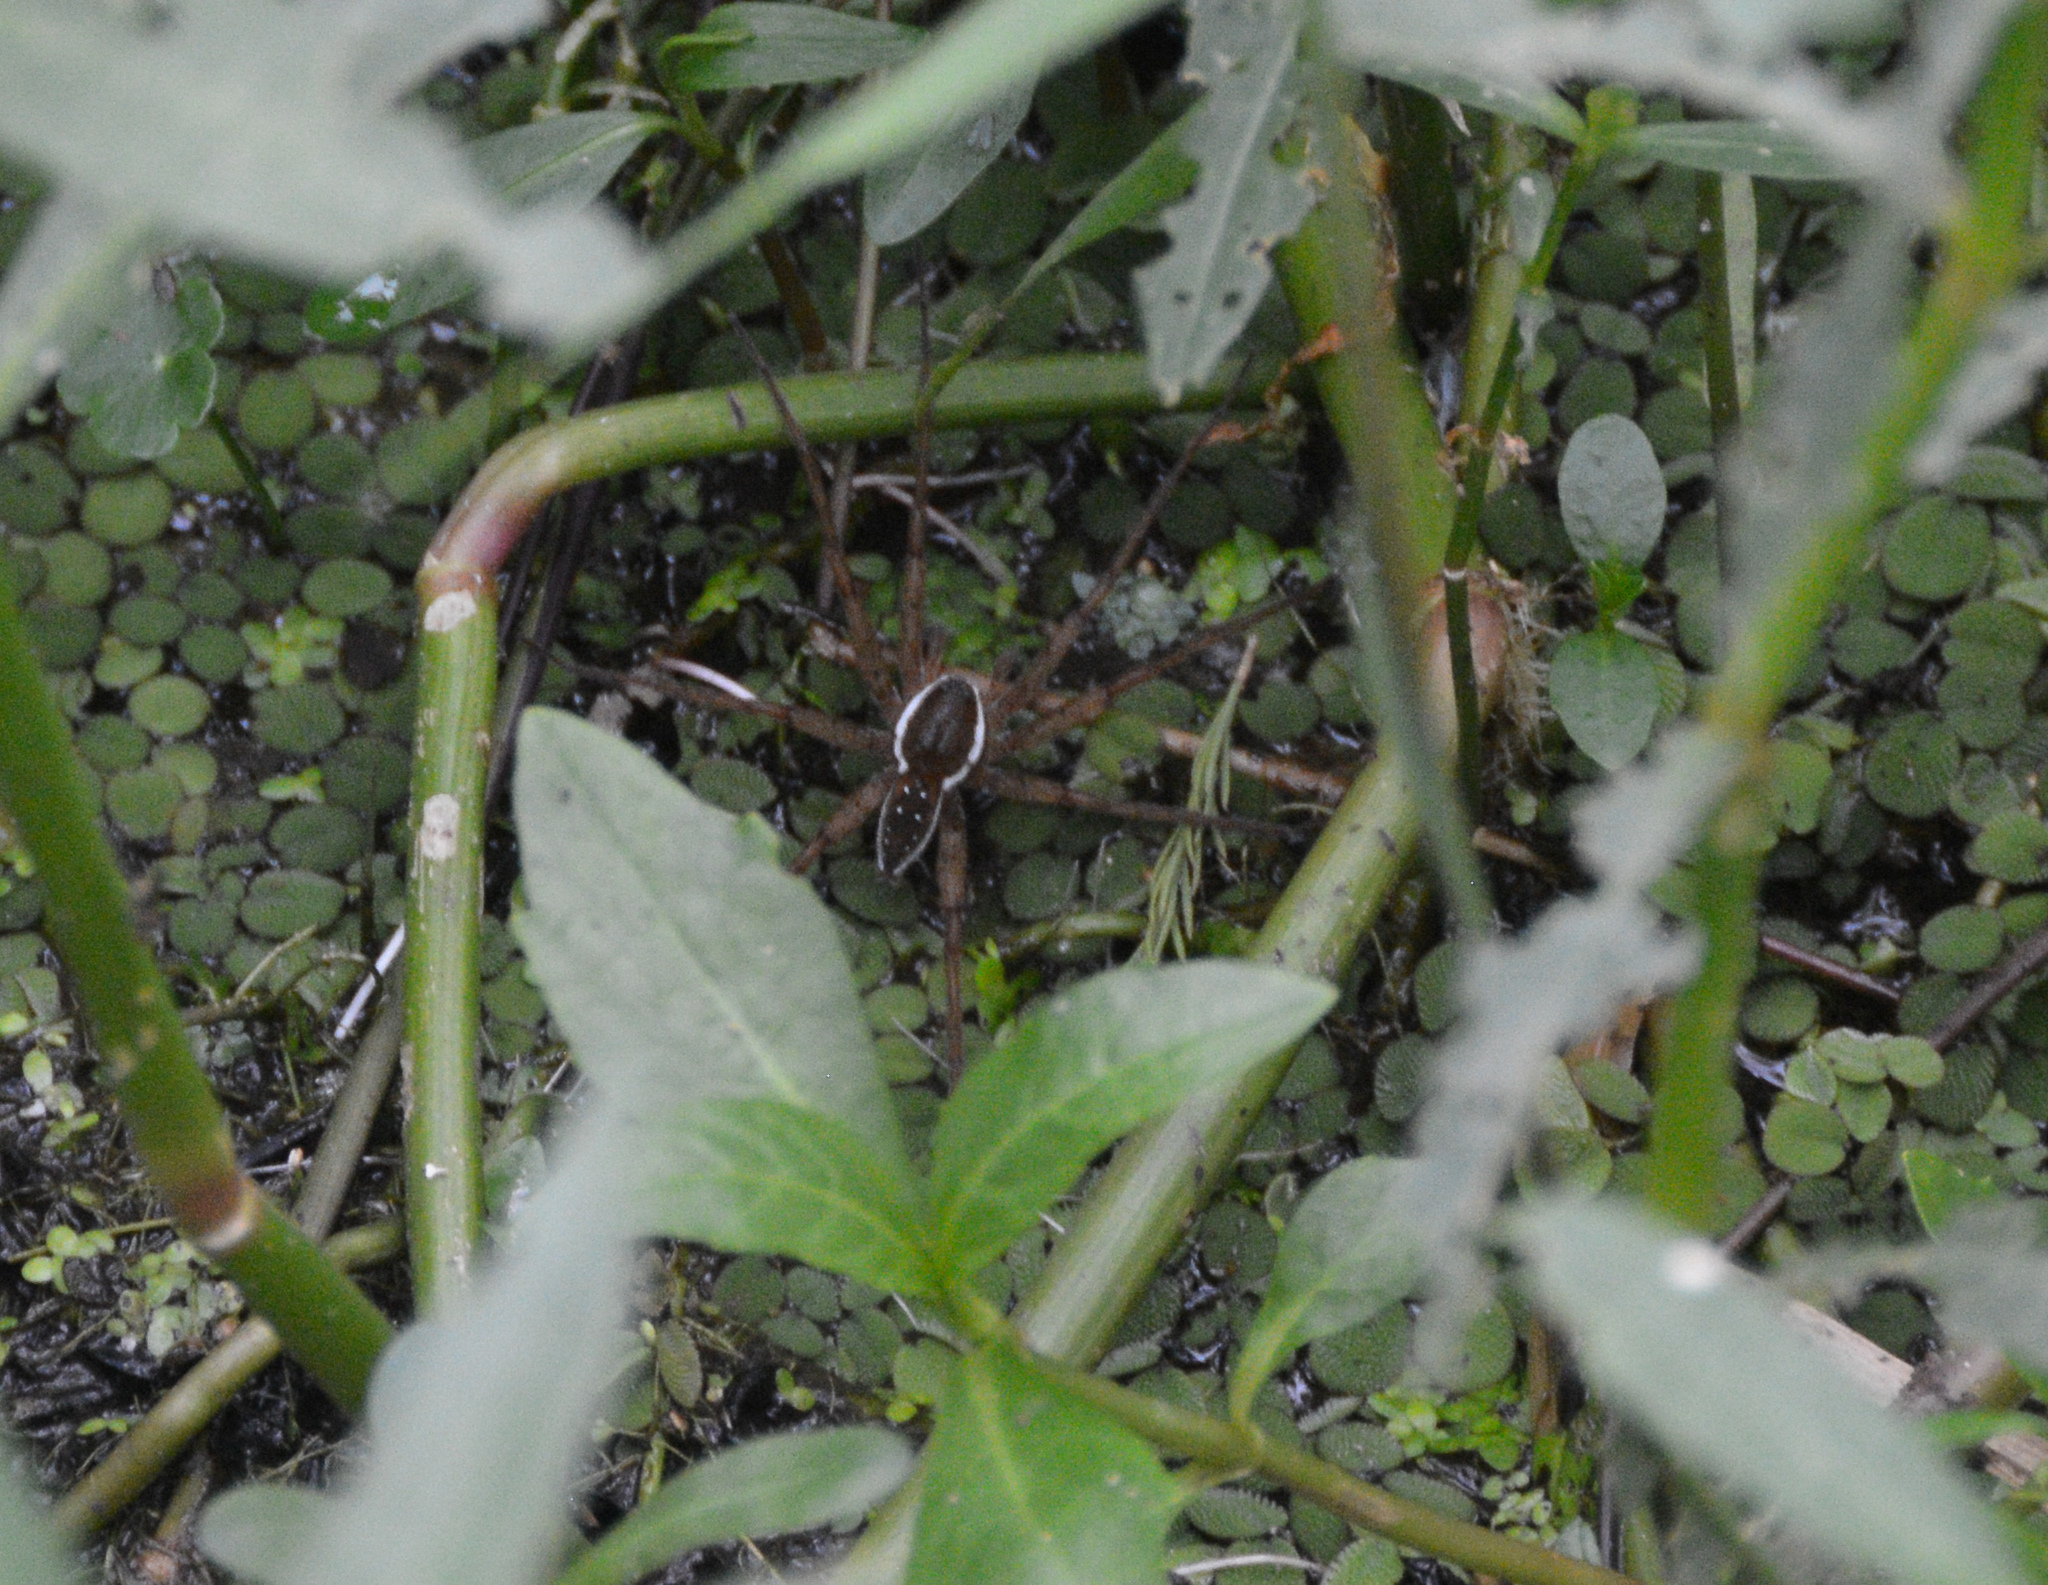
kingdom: Animalia
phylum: Arthropoda
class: Arachnida
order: Araneae
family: Pisauridae
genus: Dolomedes
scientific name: Dolomedes triton
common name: Six-spotted fishing spider
